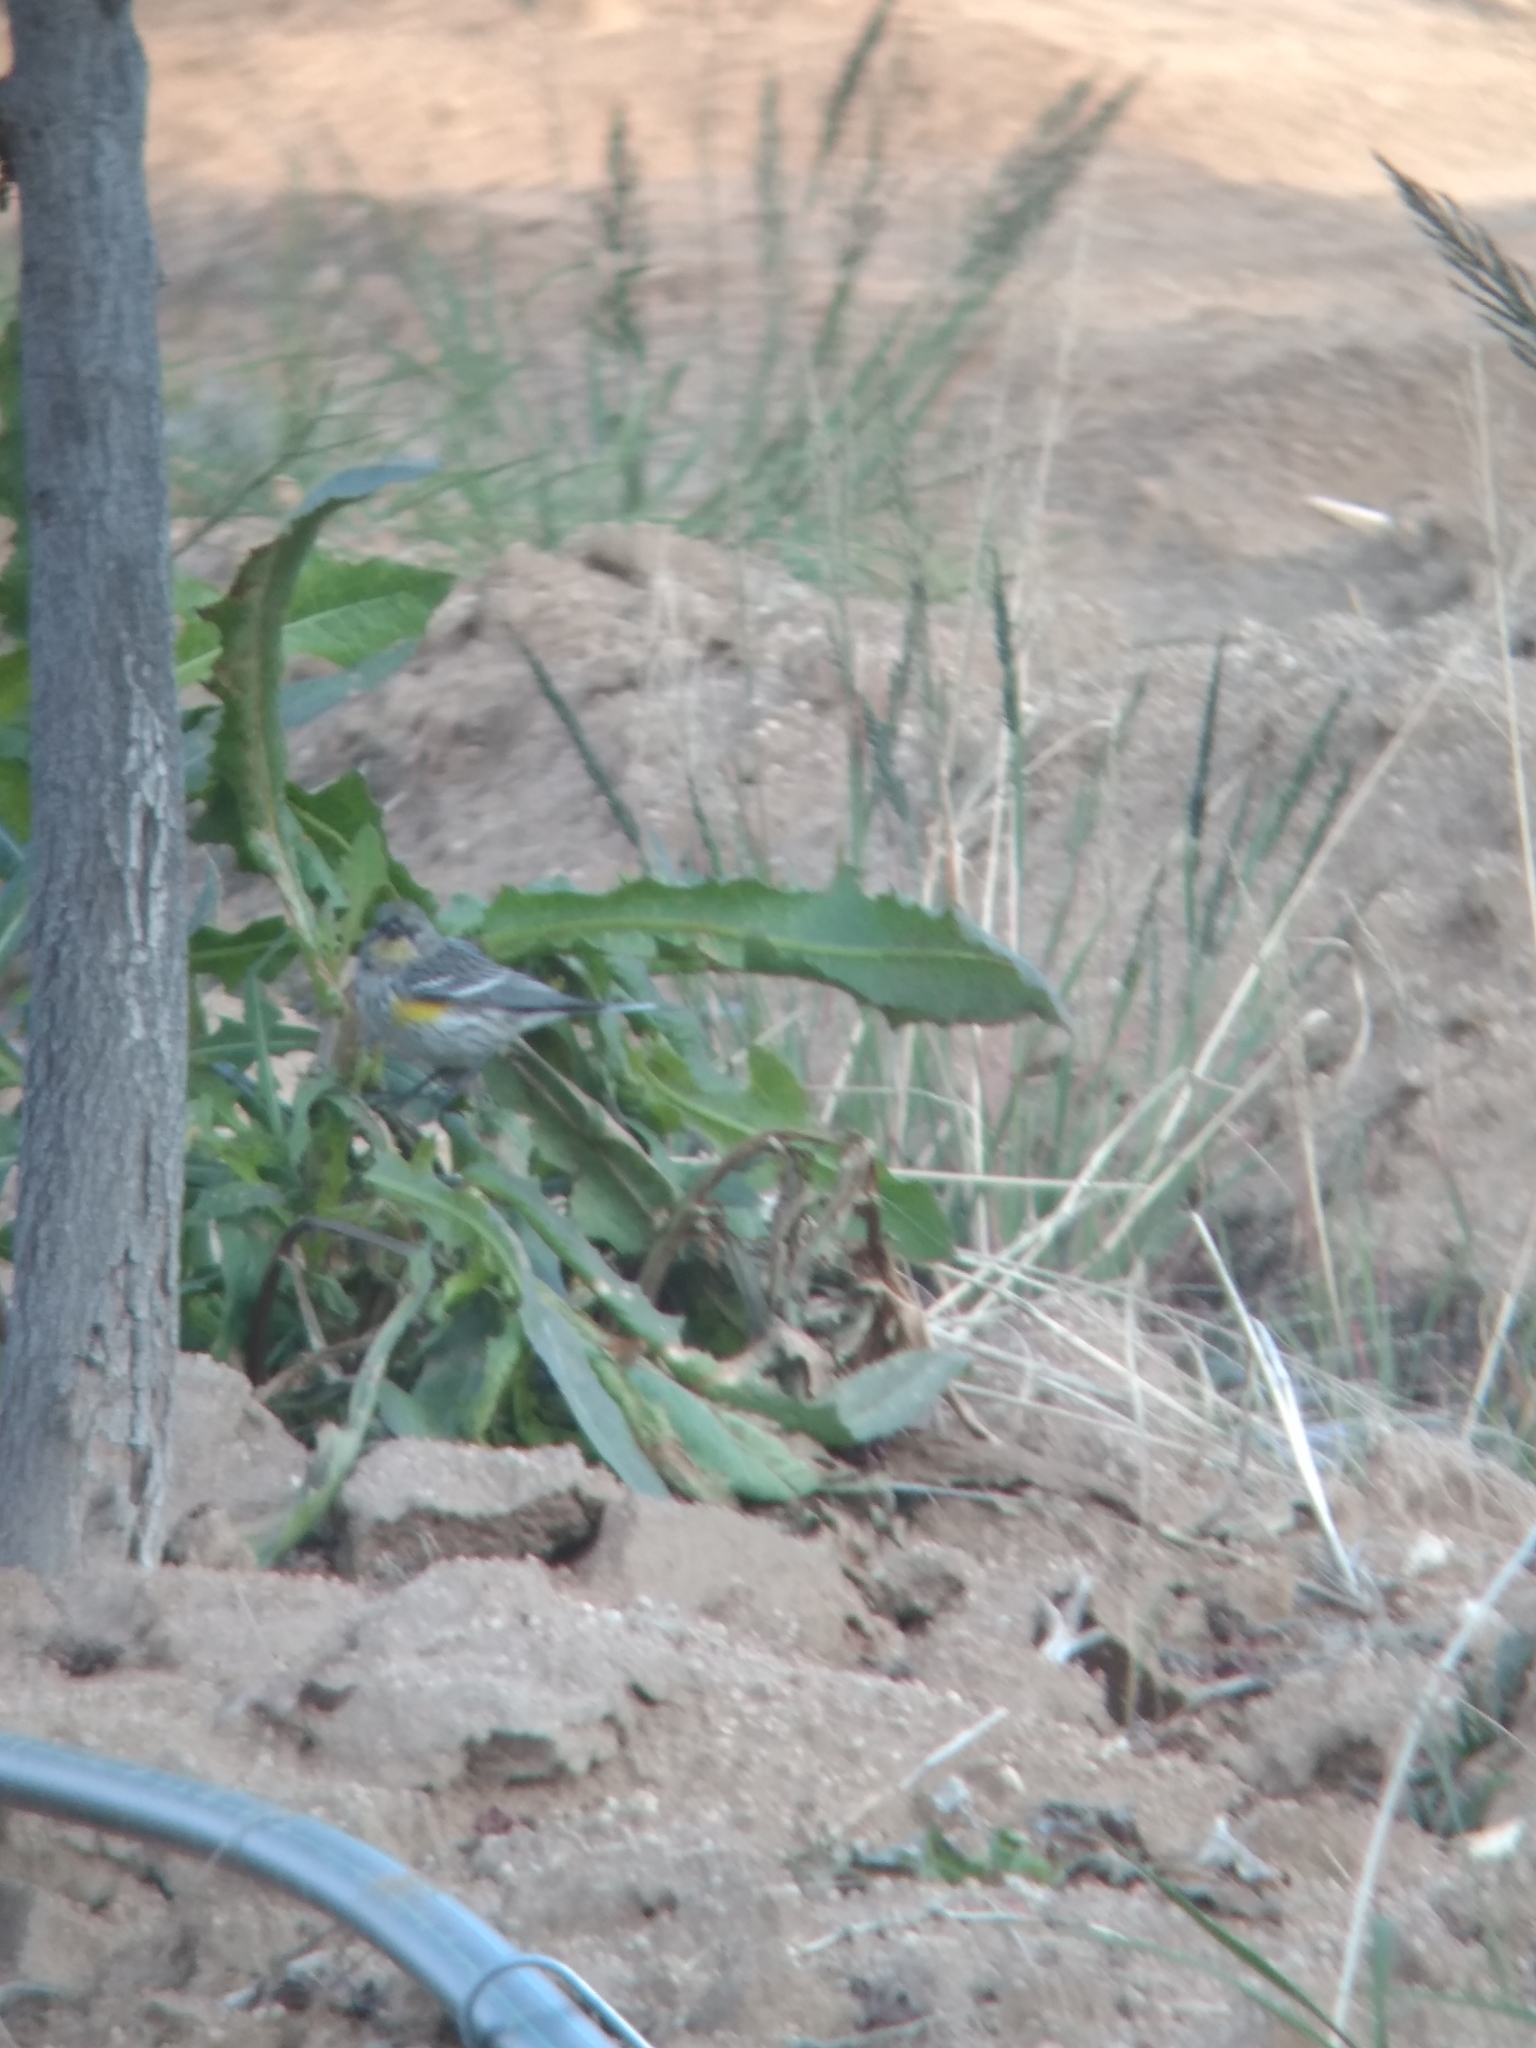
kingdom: Animalia
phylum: Chordata
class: Aves
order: Passeriformes
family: Parulidae
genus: Setophaga
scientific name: Setophaga auduboni
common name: Audubon's warbler
